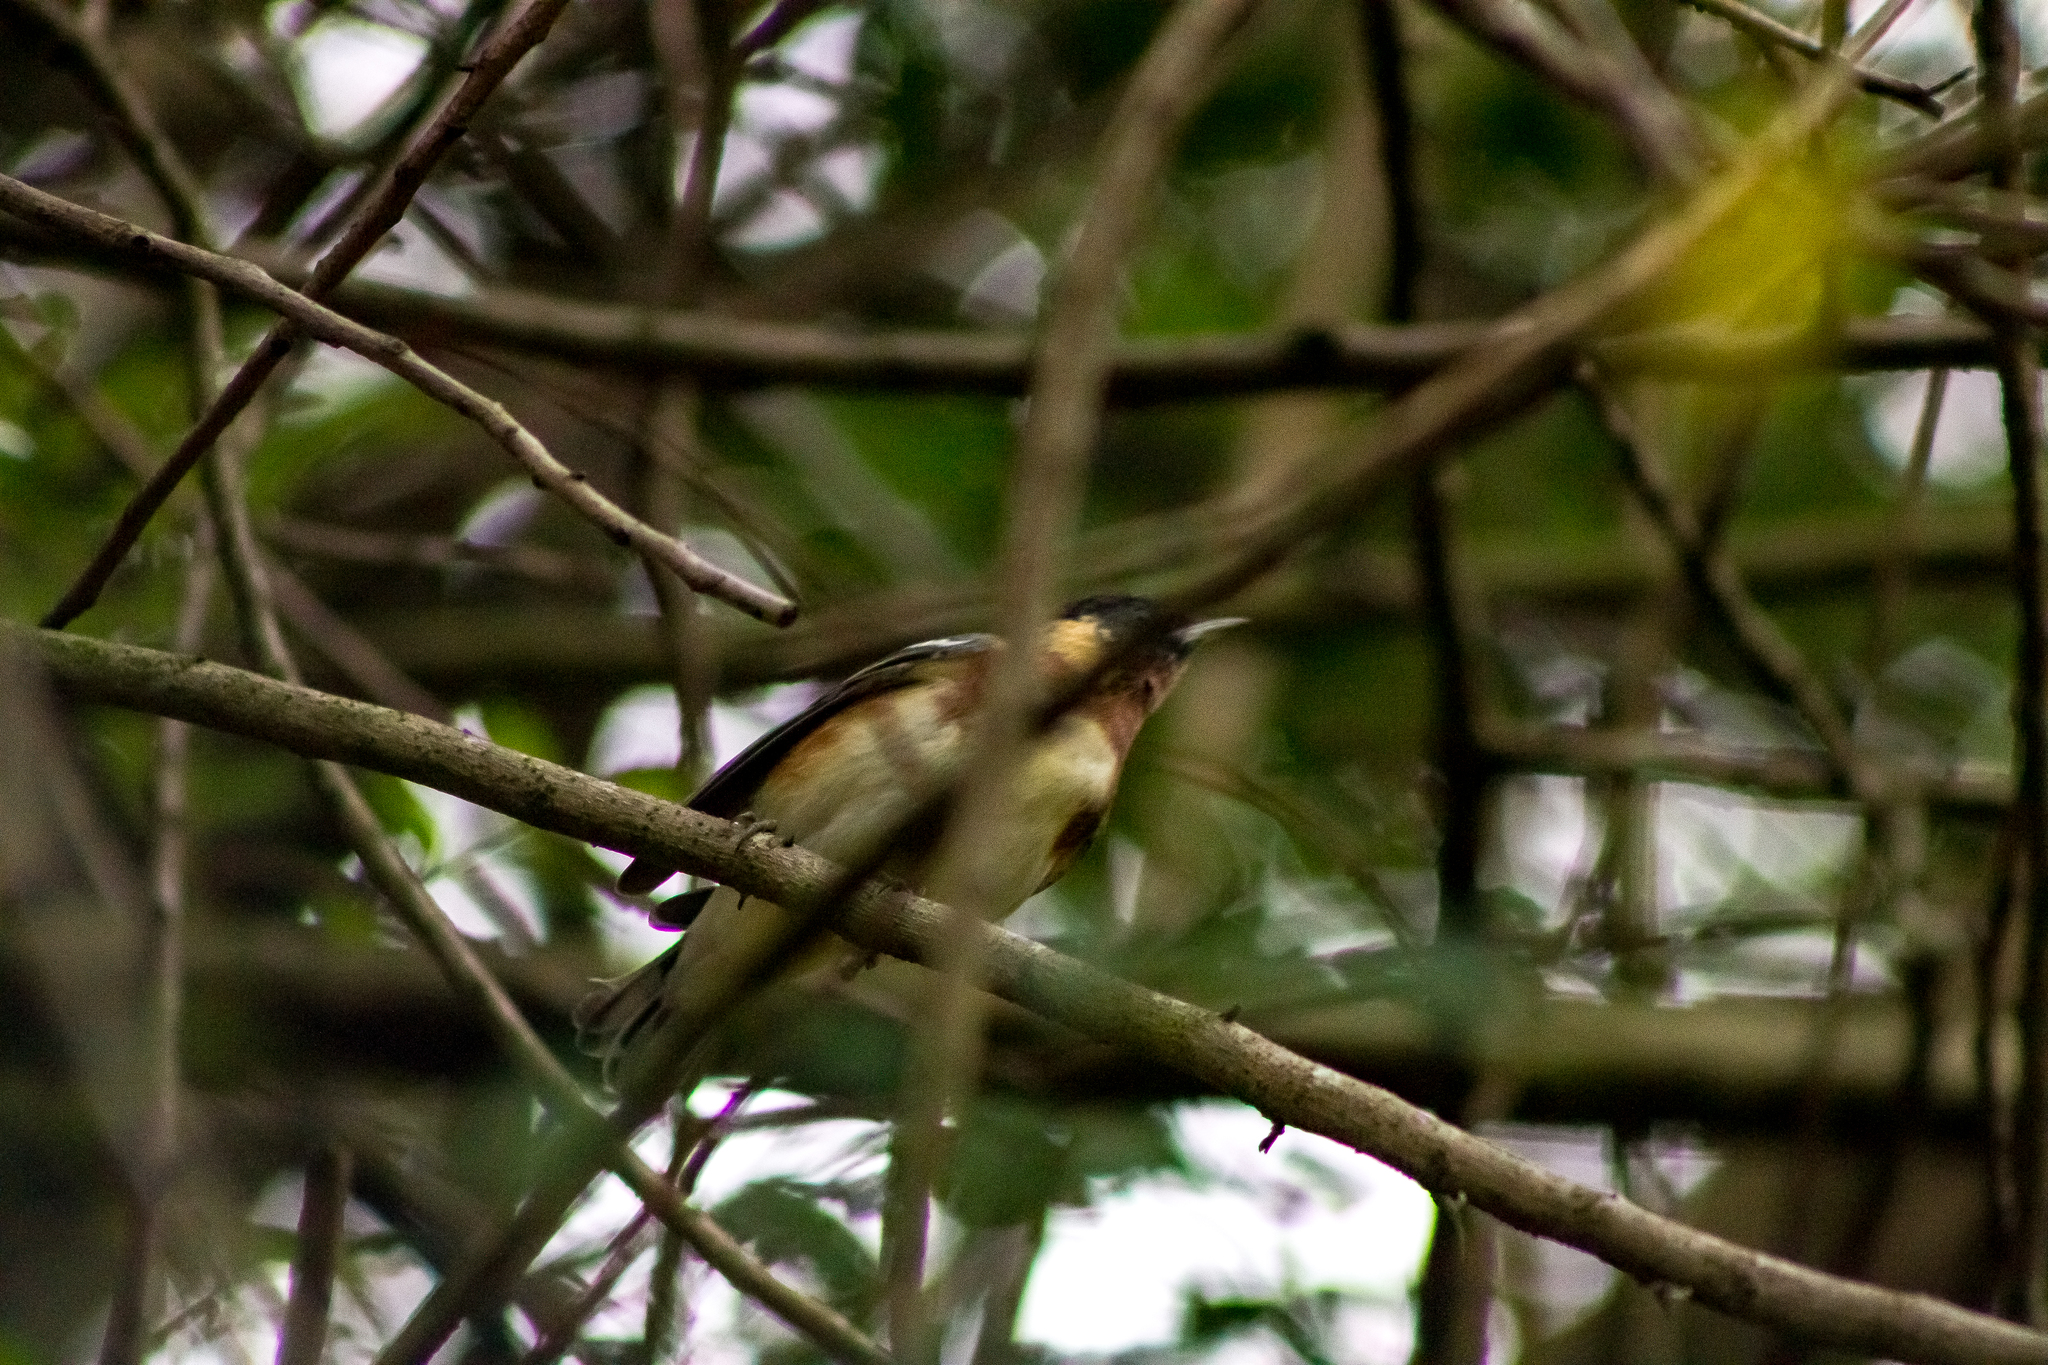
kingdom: Animalia
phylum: Chordata
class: Aves
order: Passeriformes
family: Parulidae
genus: Setophaga
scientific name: Setophaga castanea
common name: Bay-breasted warbler
